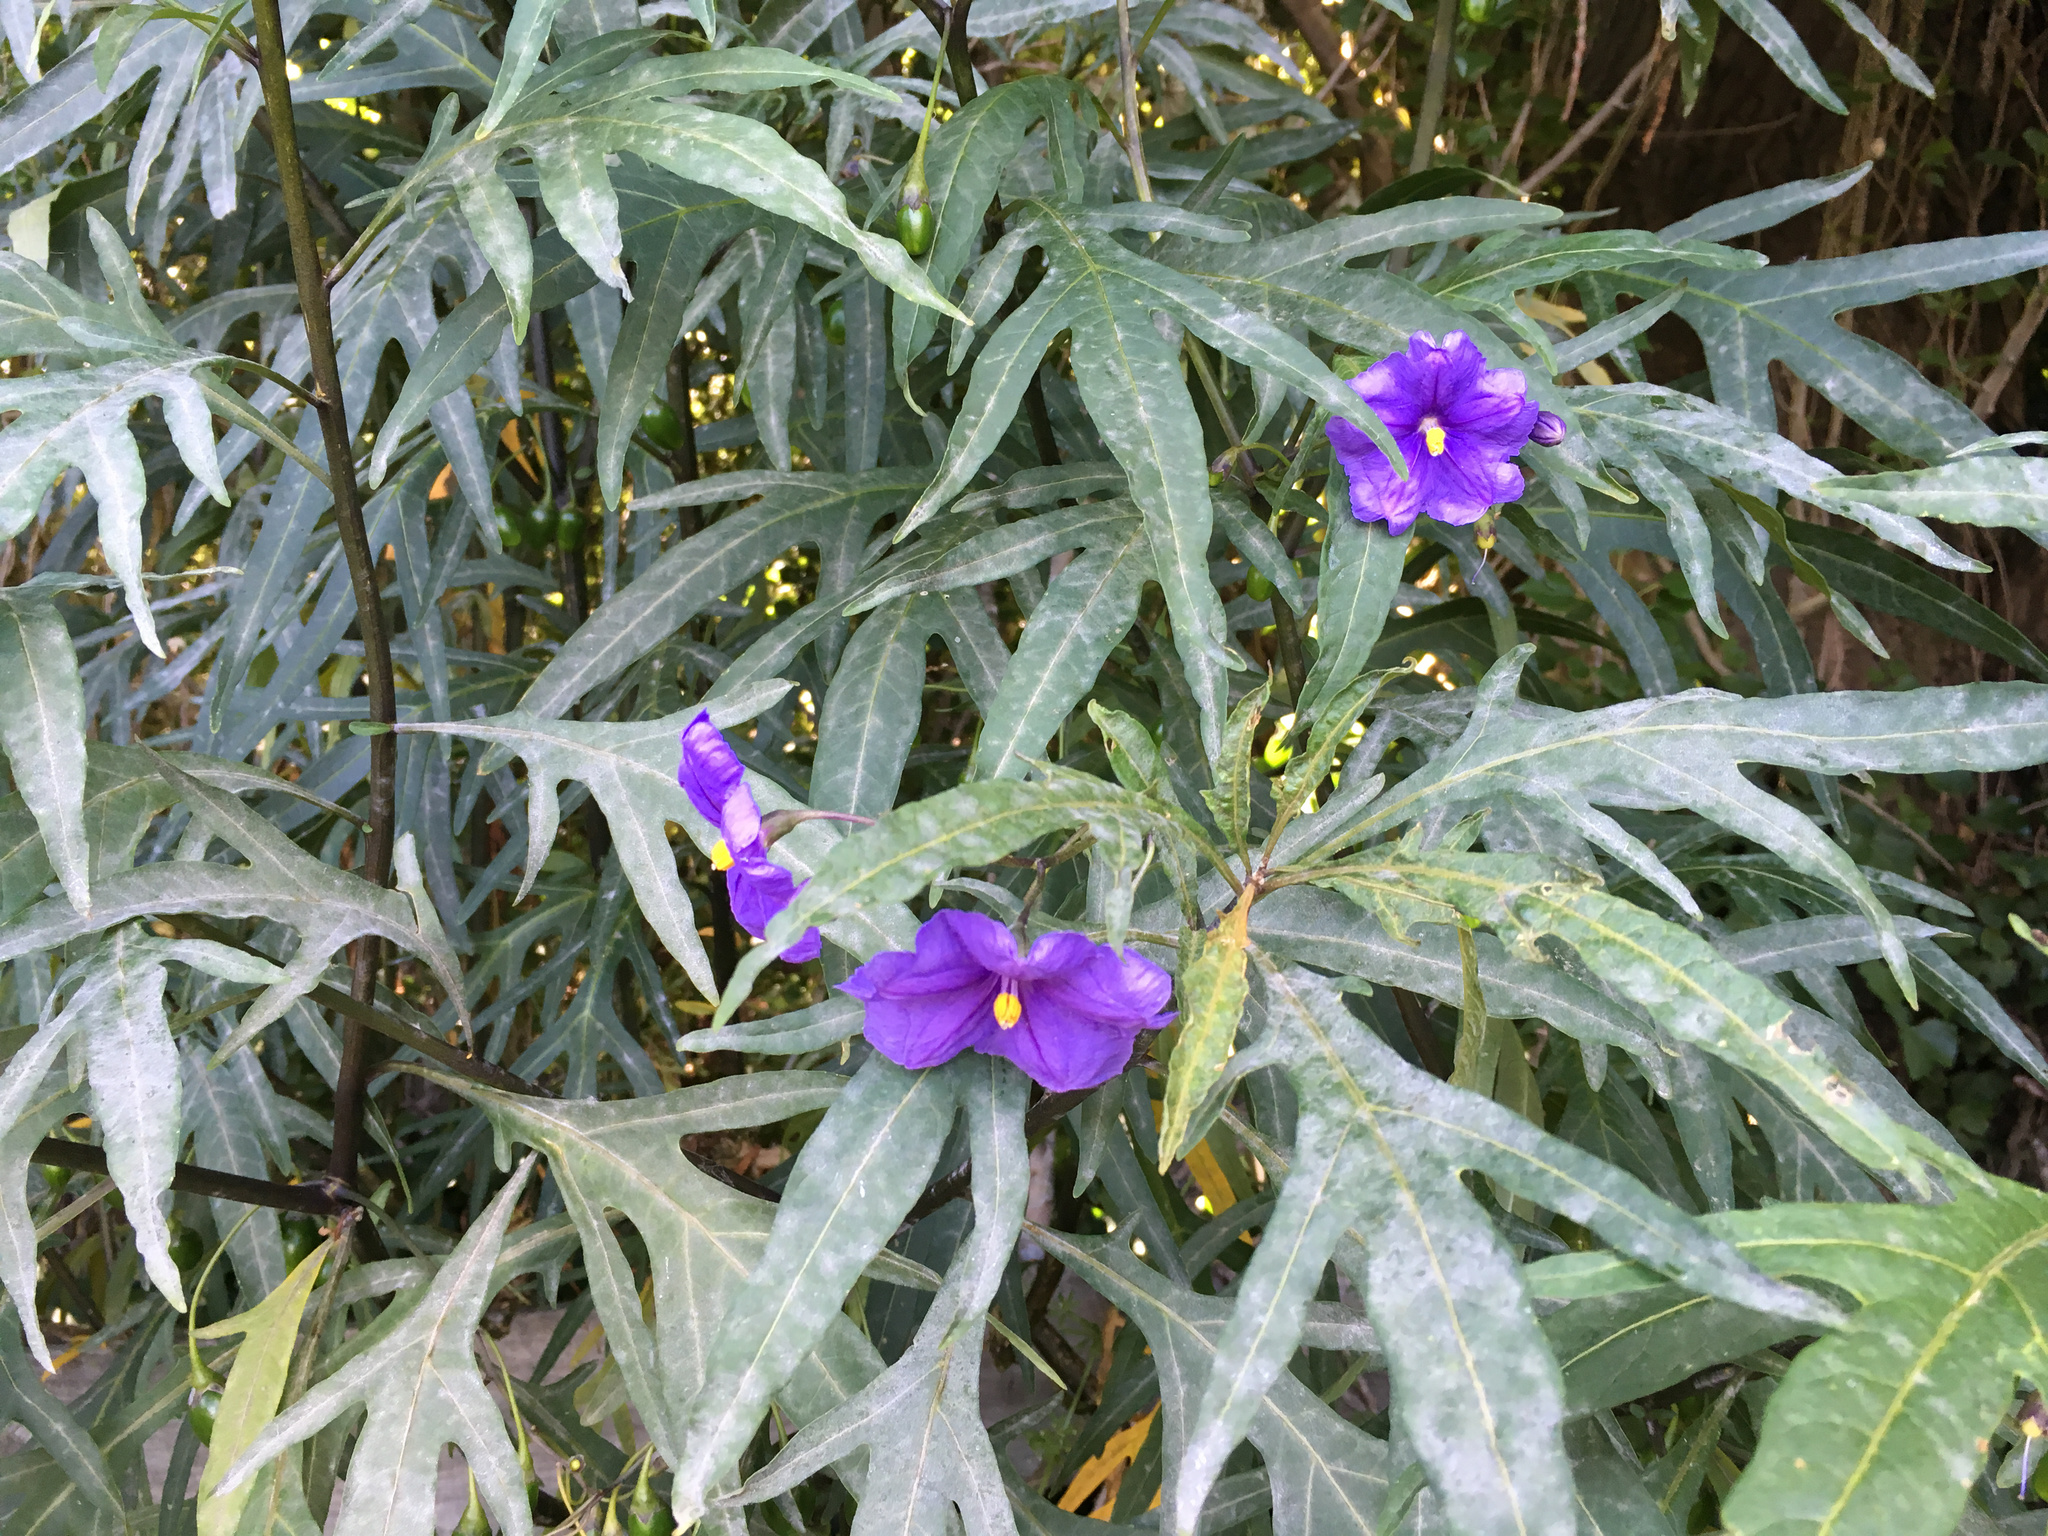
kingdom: Plantae
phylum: Tracheophyta
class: Magnoliopsida
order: Solanales
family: Solanaceae
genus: Solanum
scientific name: Solanum laciniatum
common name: Kangaroo-apple
